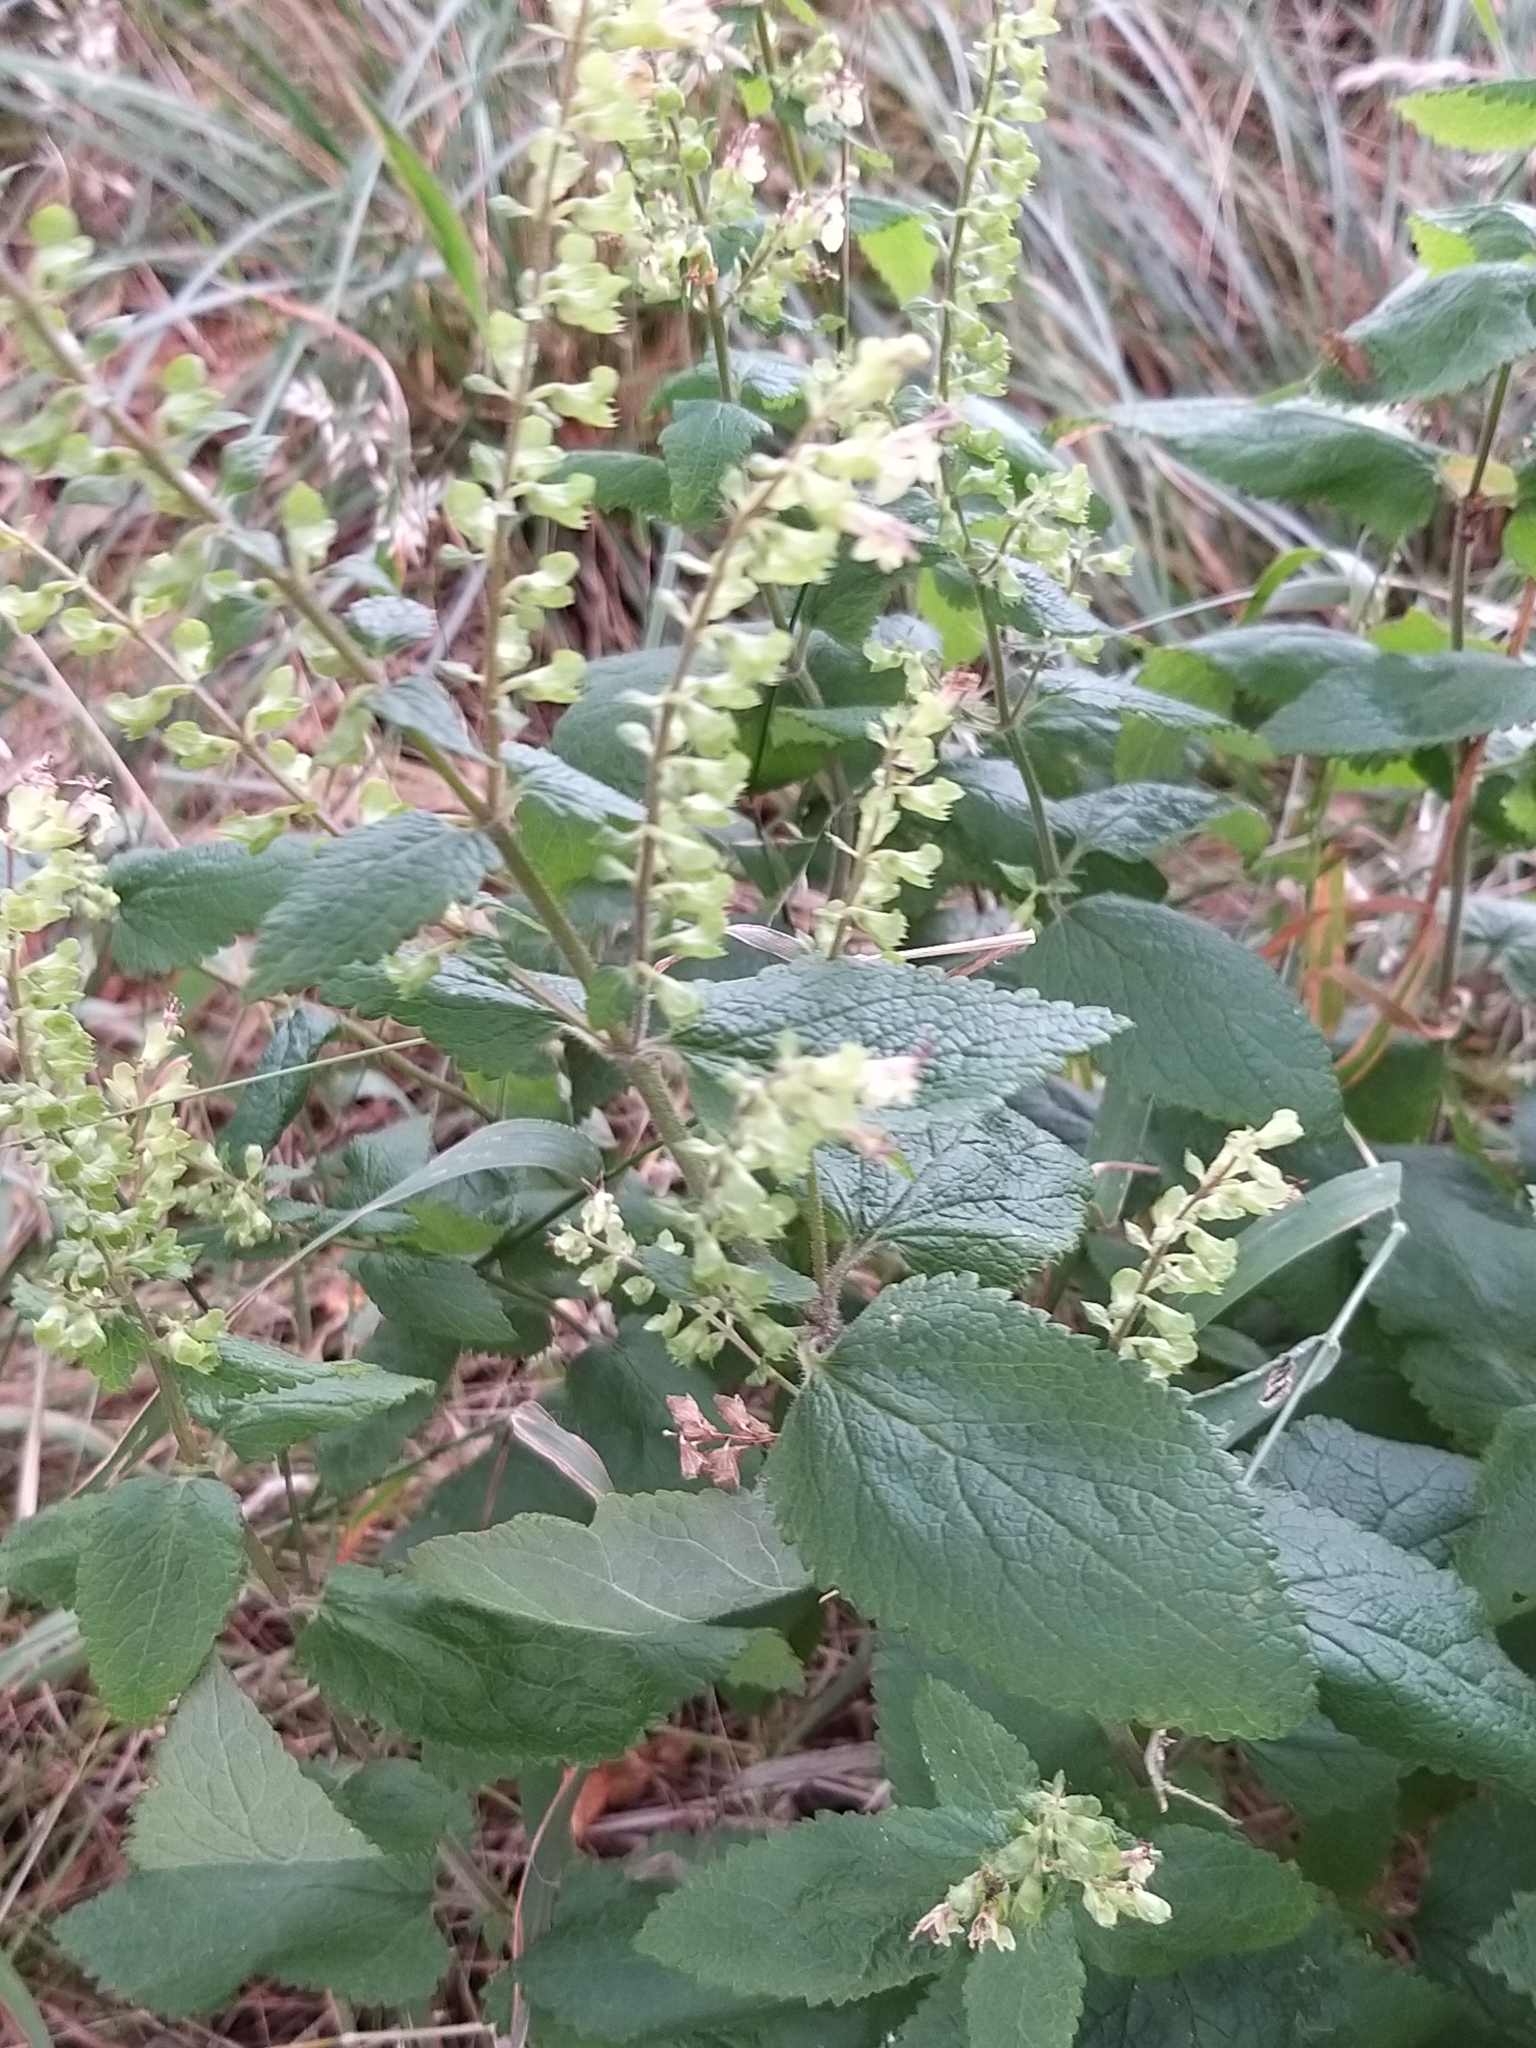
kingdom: Plantae
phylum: Tracheophyta
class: Magnoliopsida
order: Lamiales
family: Lamiaceae
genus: Teucrium
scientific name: Teucrium scorodonia
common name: Woodland germander
